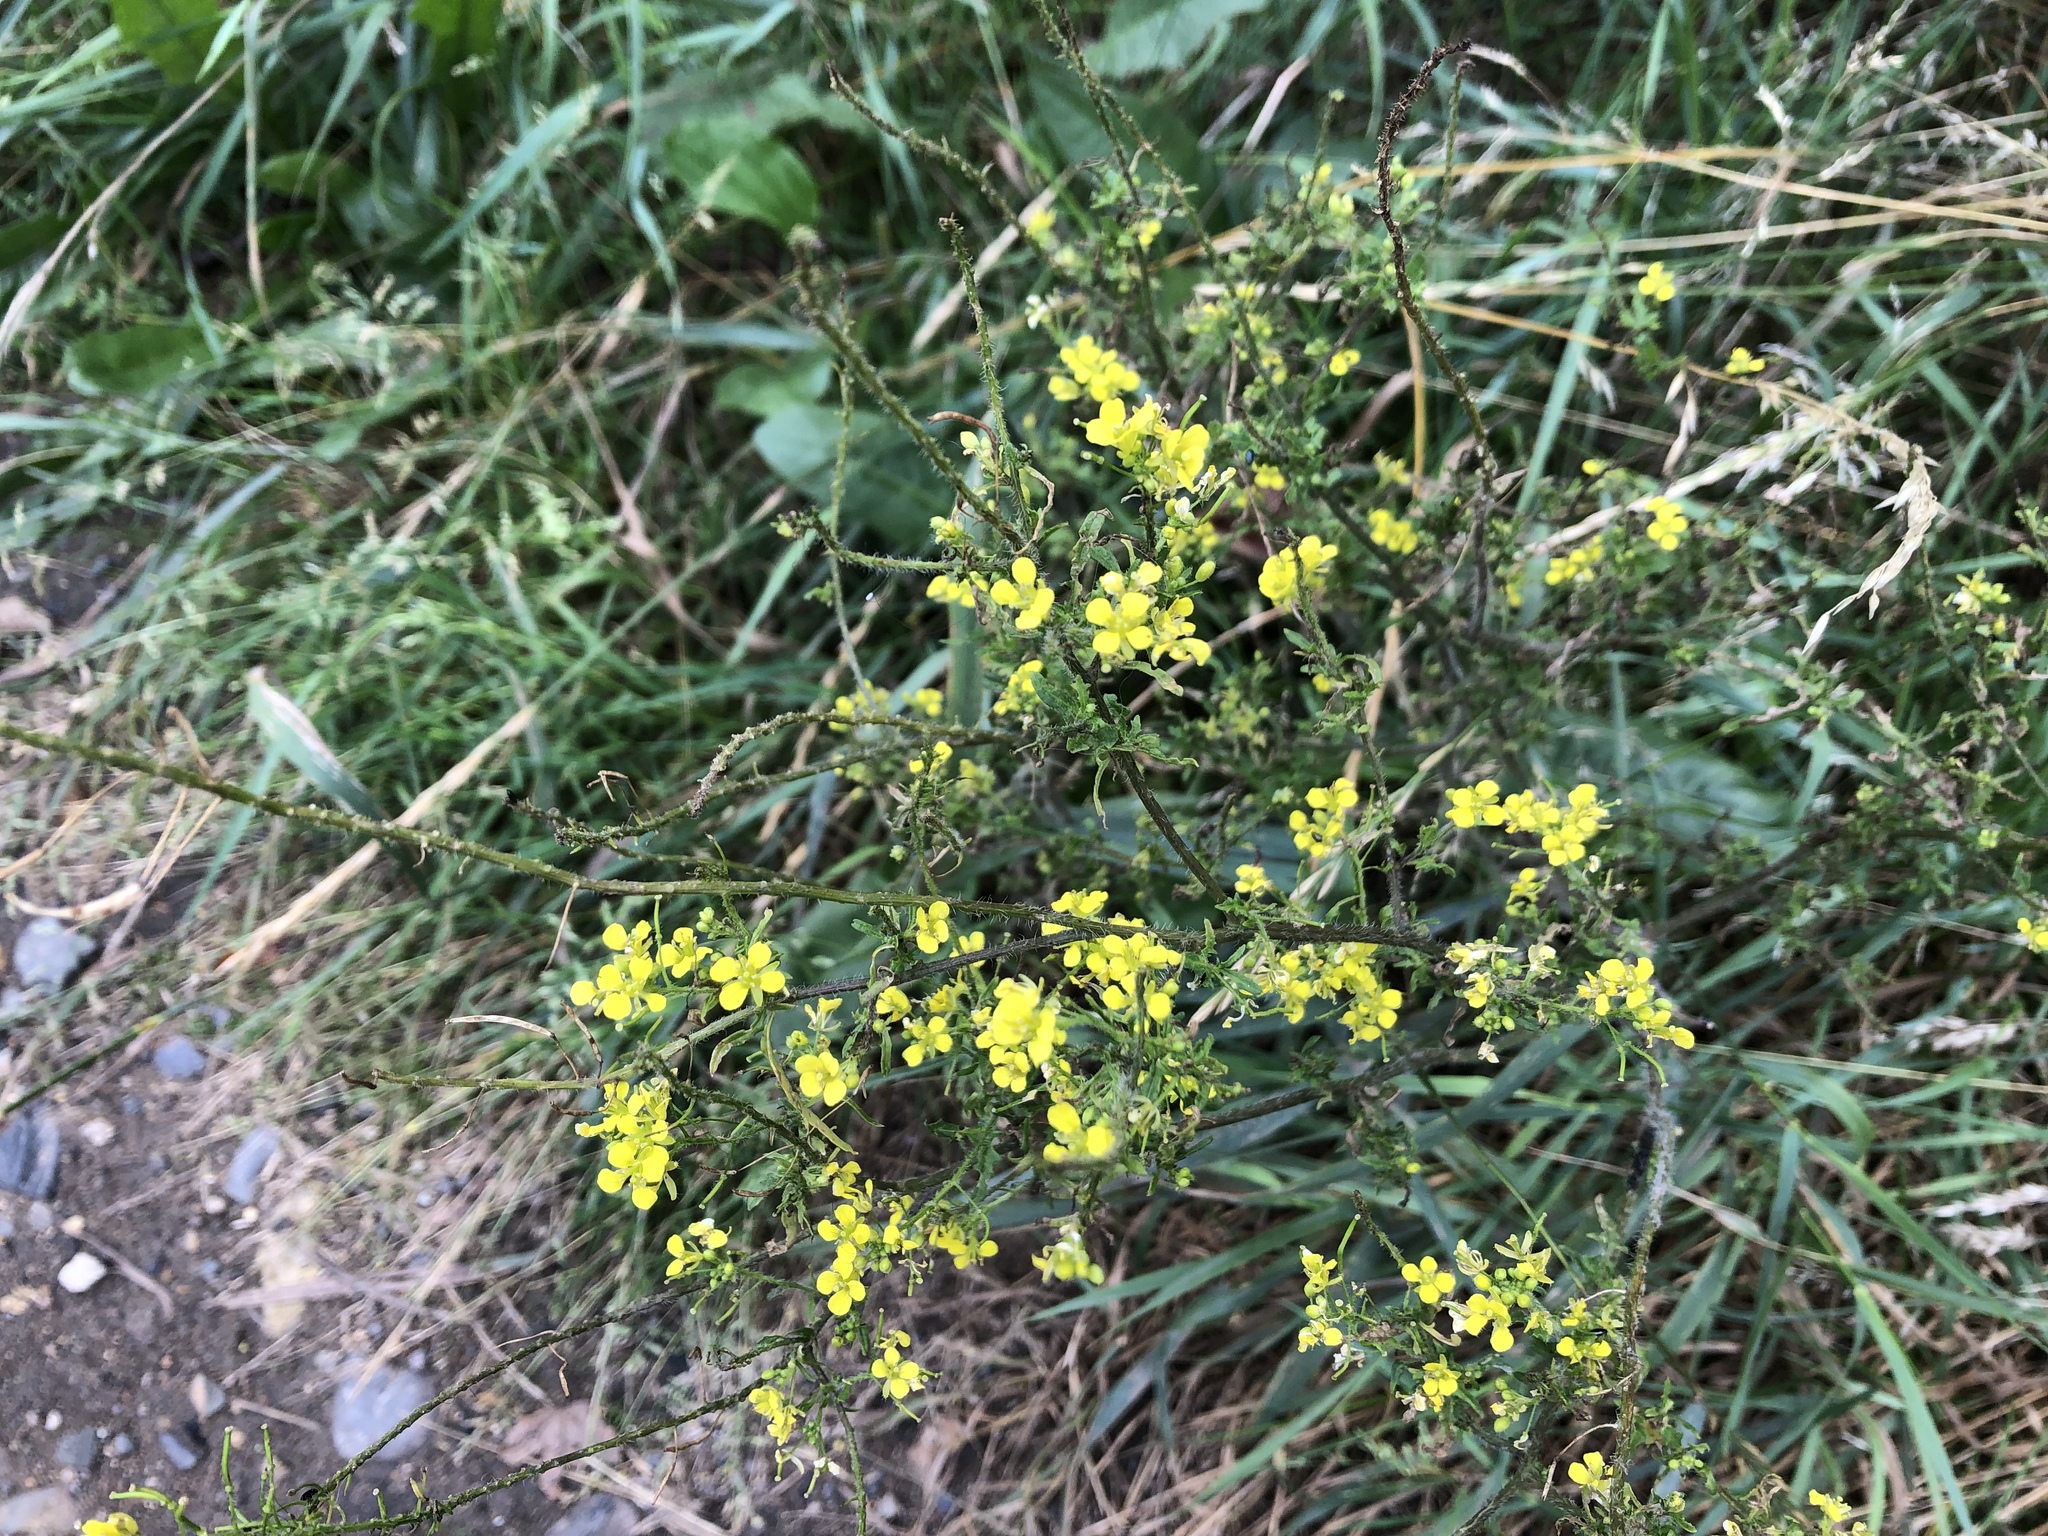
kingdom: Plantae
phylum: Tracheophyta
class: Magnoliopsida
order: Brassicales
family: Brassicaceae
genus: Sisymbrium
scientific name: Sisymbrium loeselii
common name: False london-rocket
